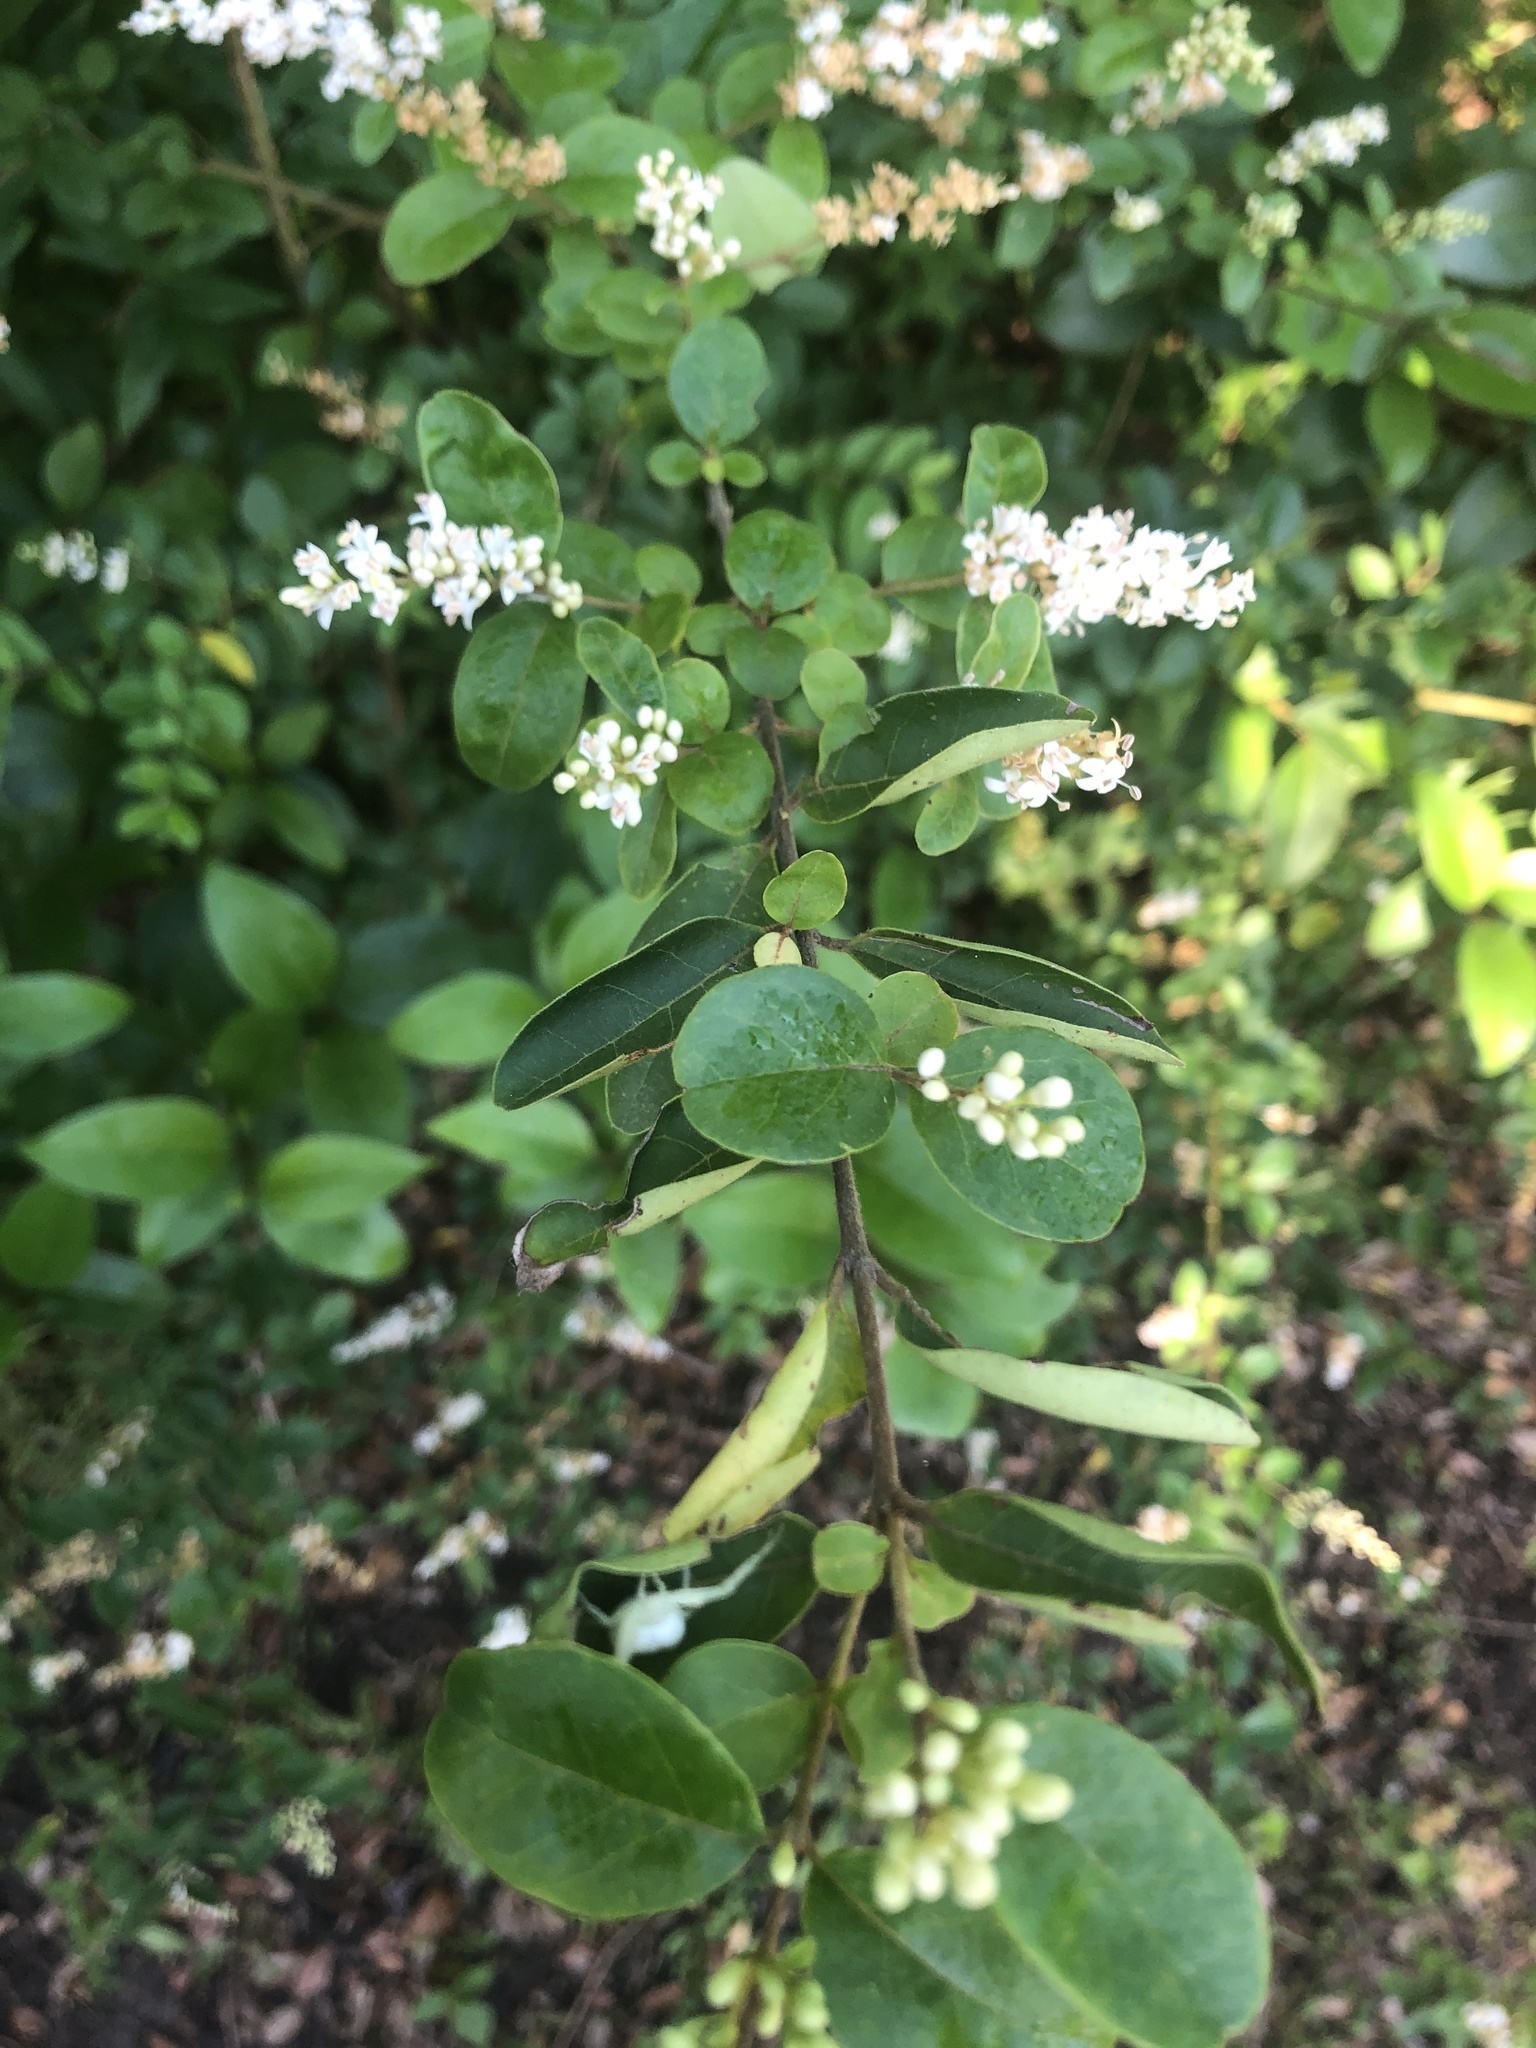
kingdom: Plantae
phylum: Tracheophyta
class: Magnoliopsida
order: Lamiales
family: Oleaceae
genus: Ligustrum
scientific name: Ligustrum sinense
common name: Chinese privet
